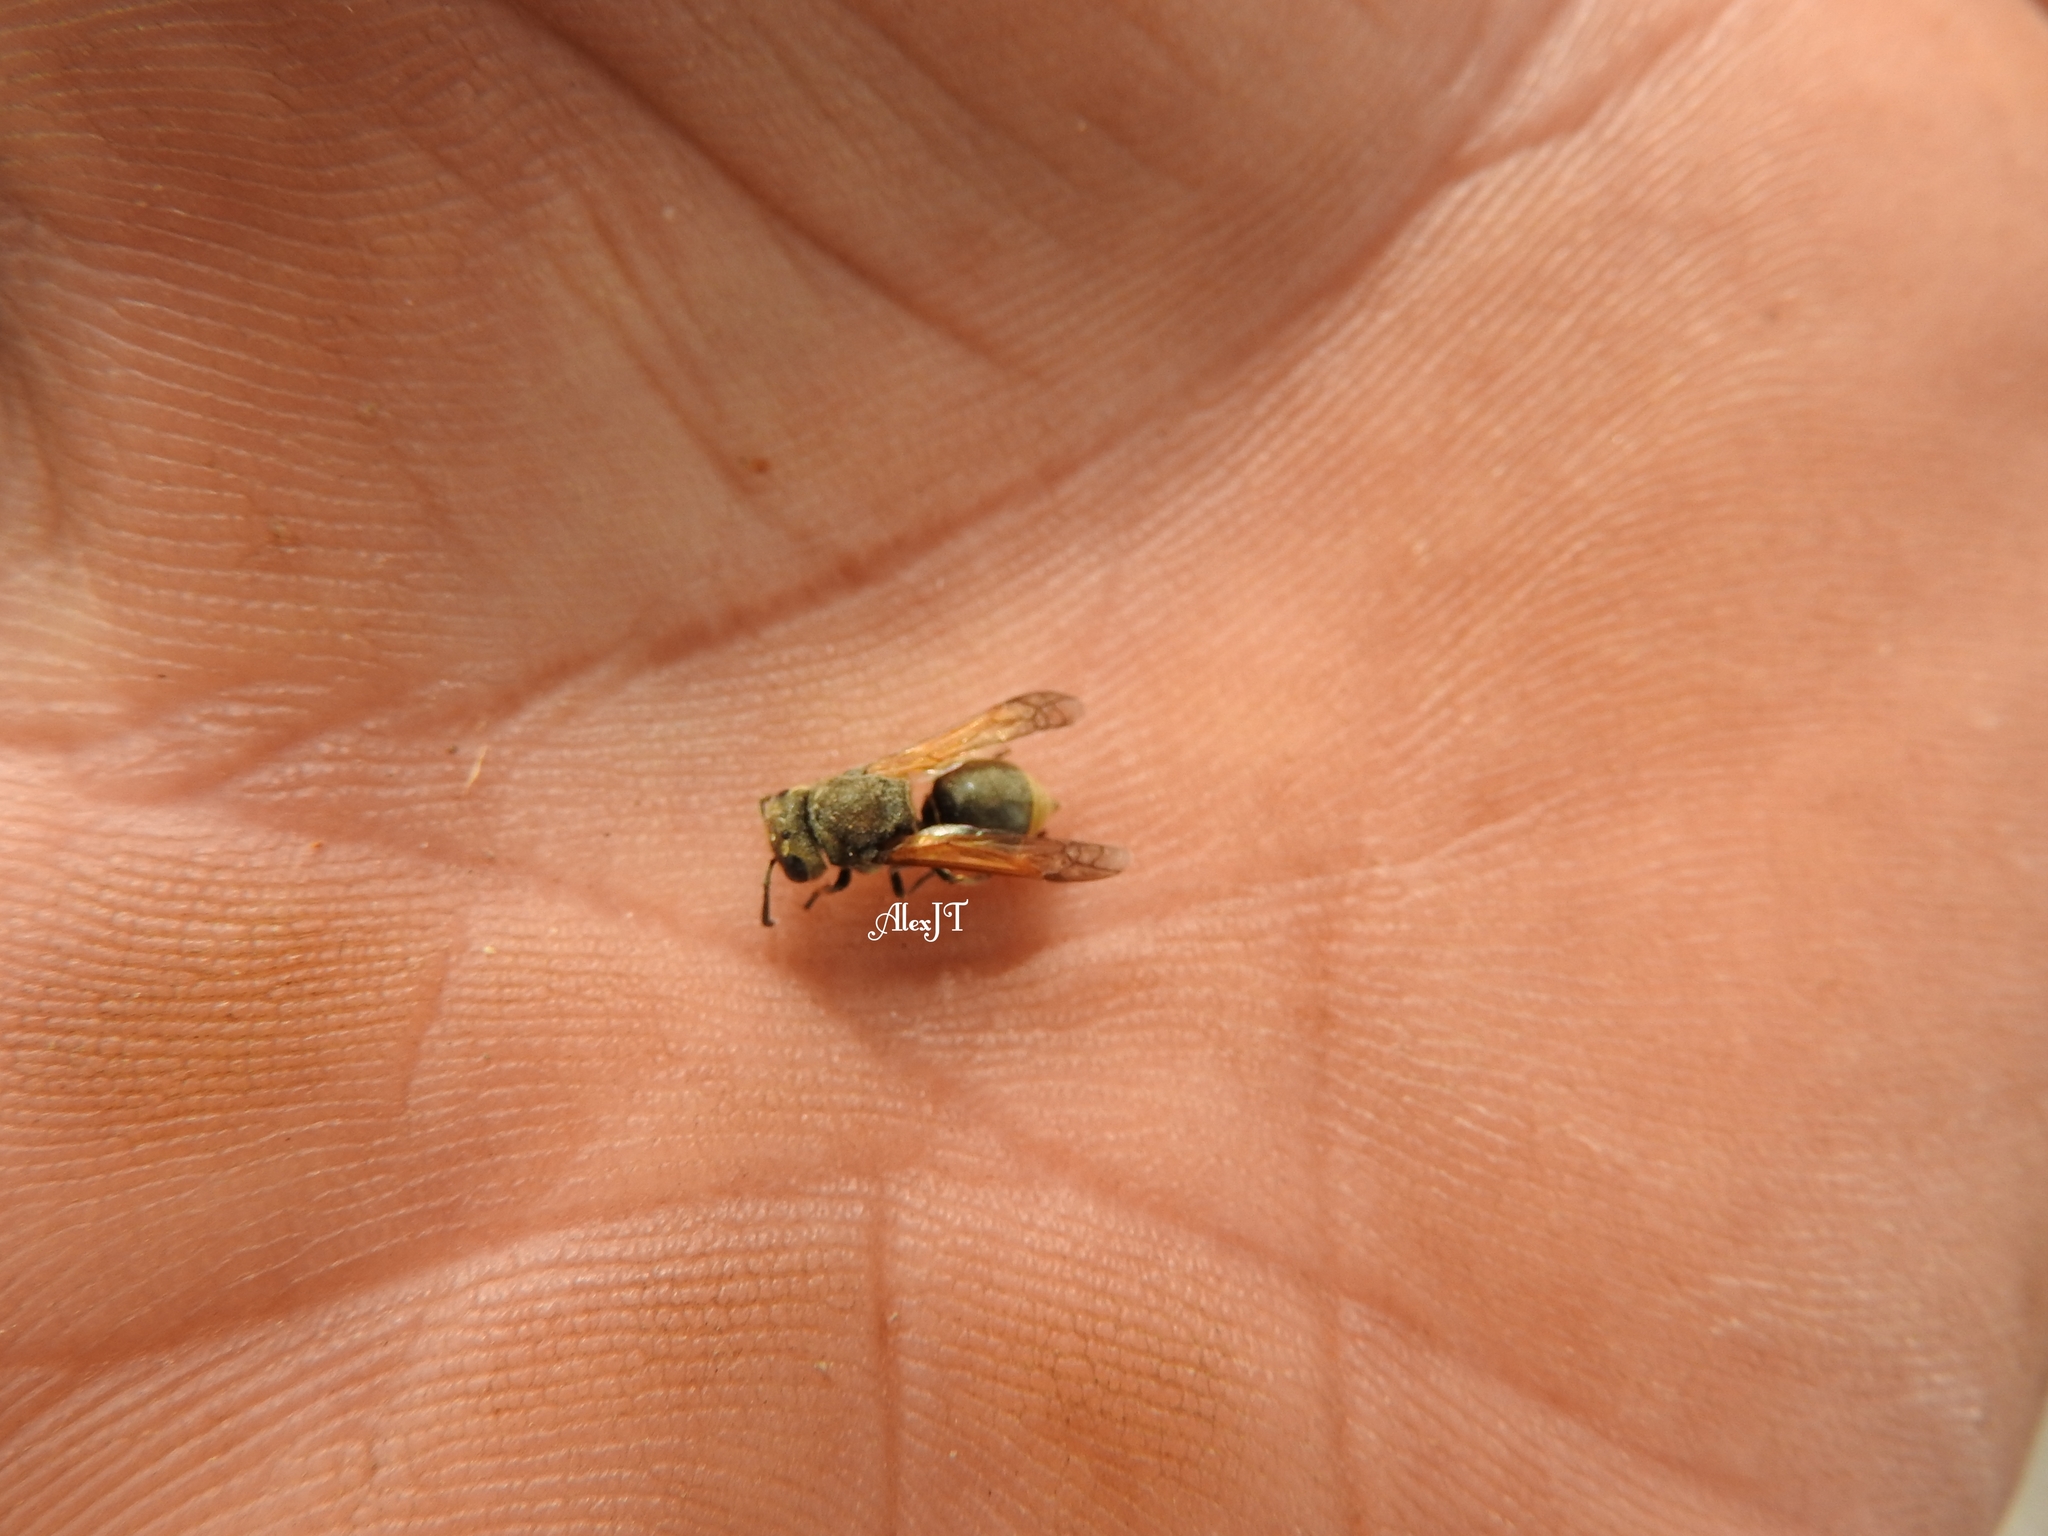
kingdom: Animalia
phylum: Arthropoda
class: Insecta
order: Hymenoptera
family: Vespidae
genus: Brachygastra
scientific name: Brachygastra mellifica
